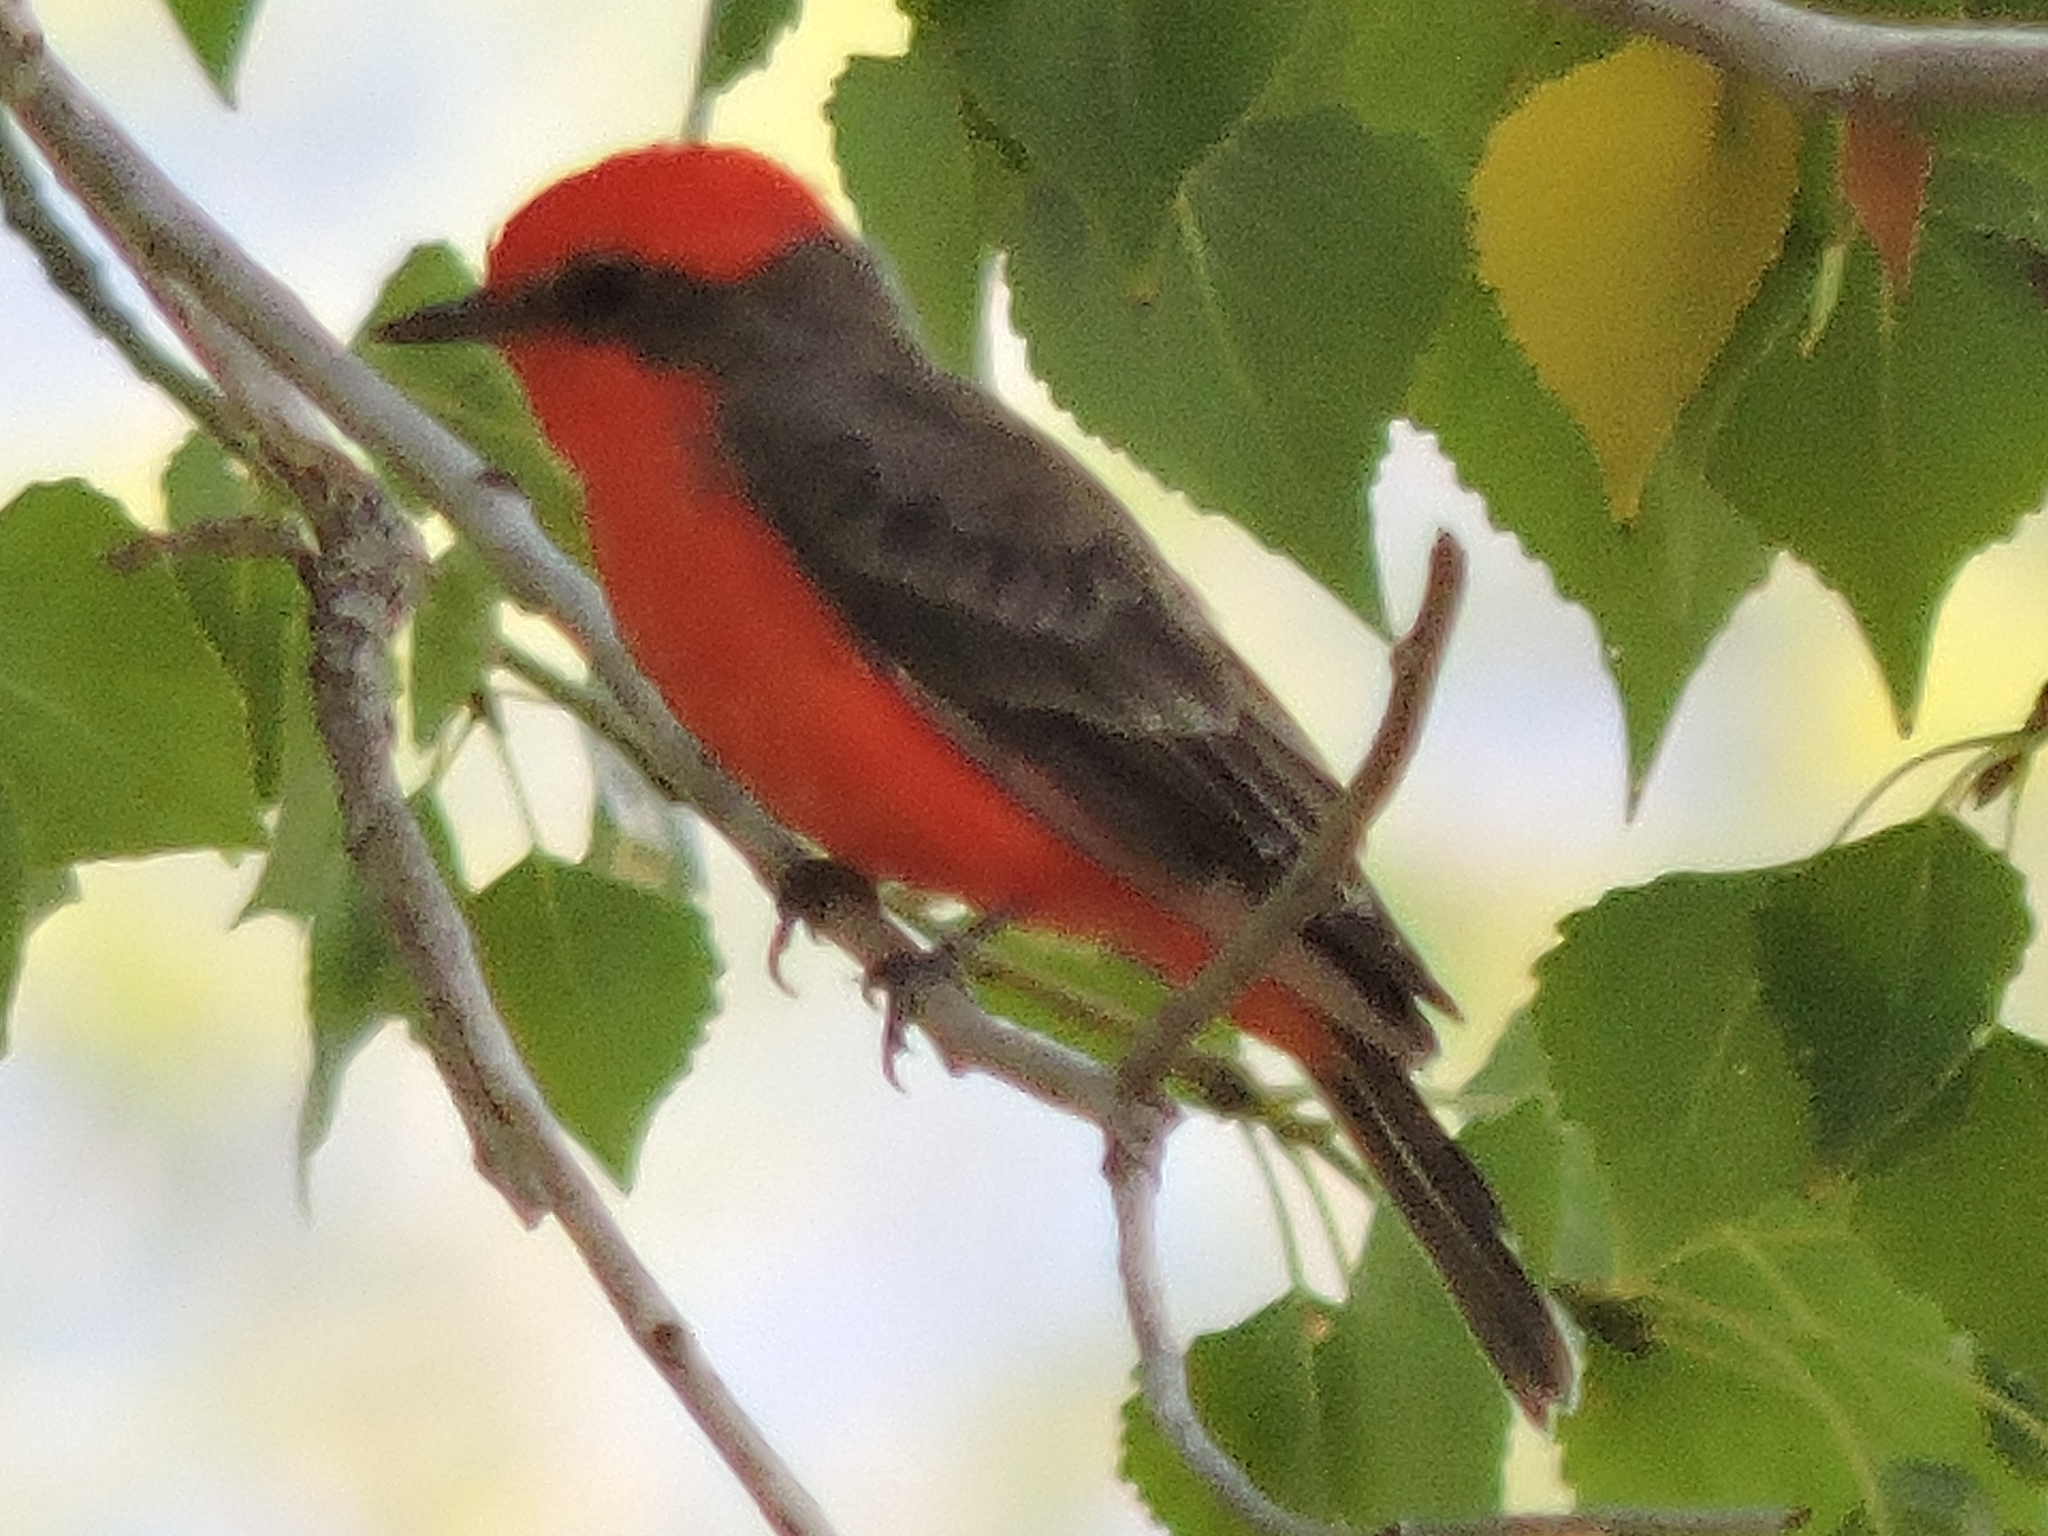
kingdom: Animalia
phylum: Chordata
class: Aves
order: Passeriformes
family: Tyrannidae
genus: Pyrocephalus
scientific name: Pyrocephalus rubinus
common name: Vermilion flycatcher
